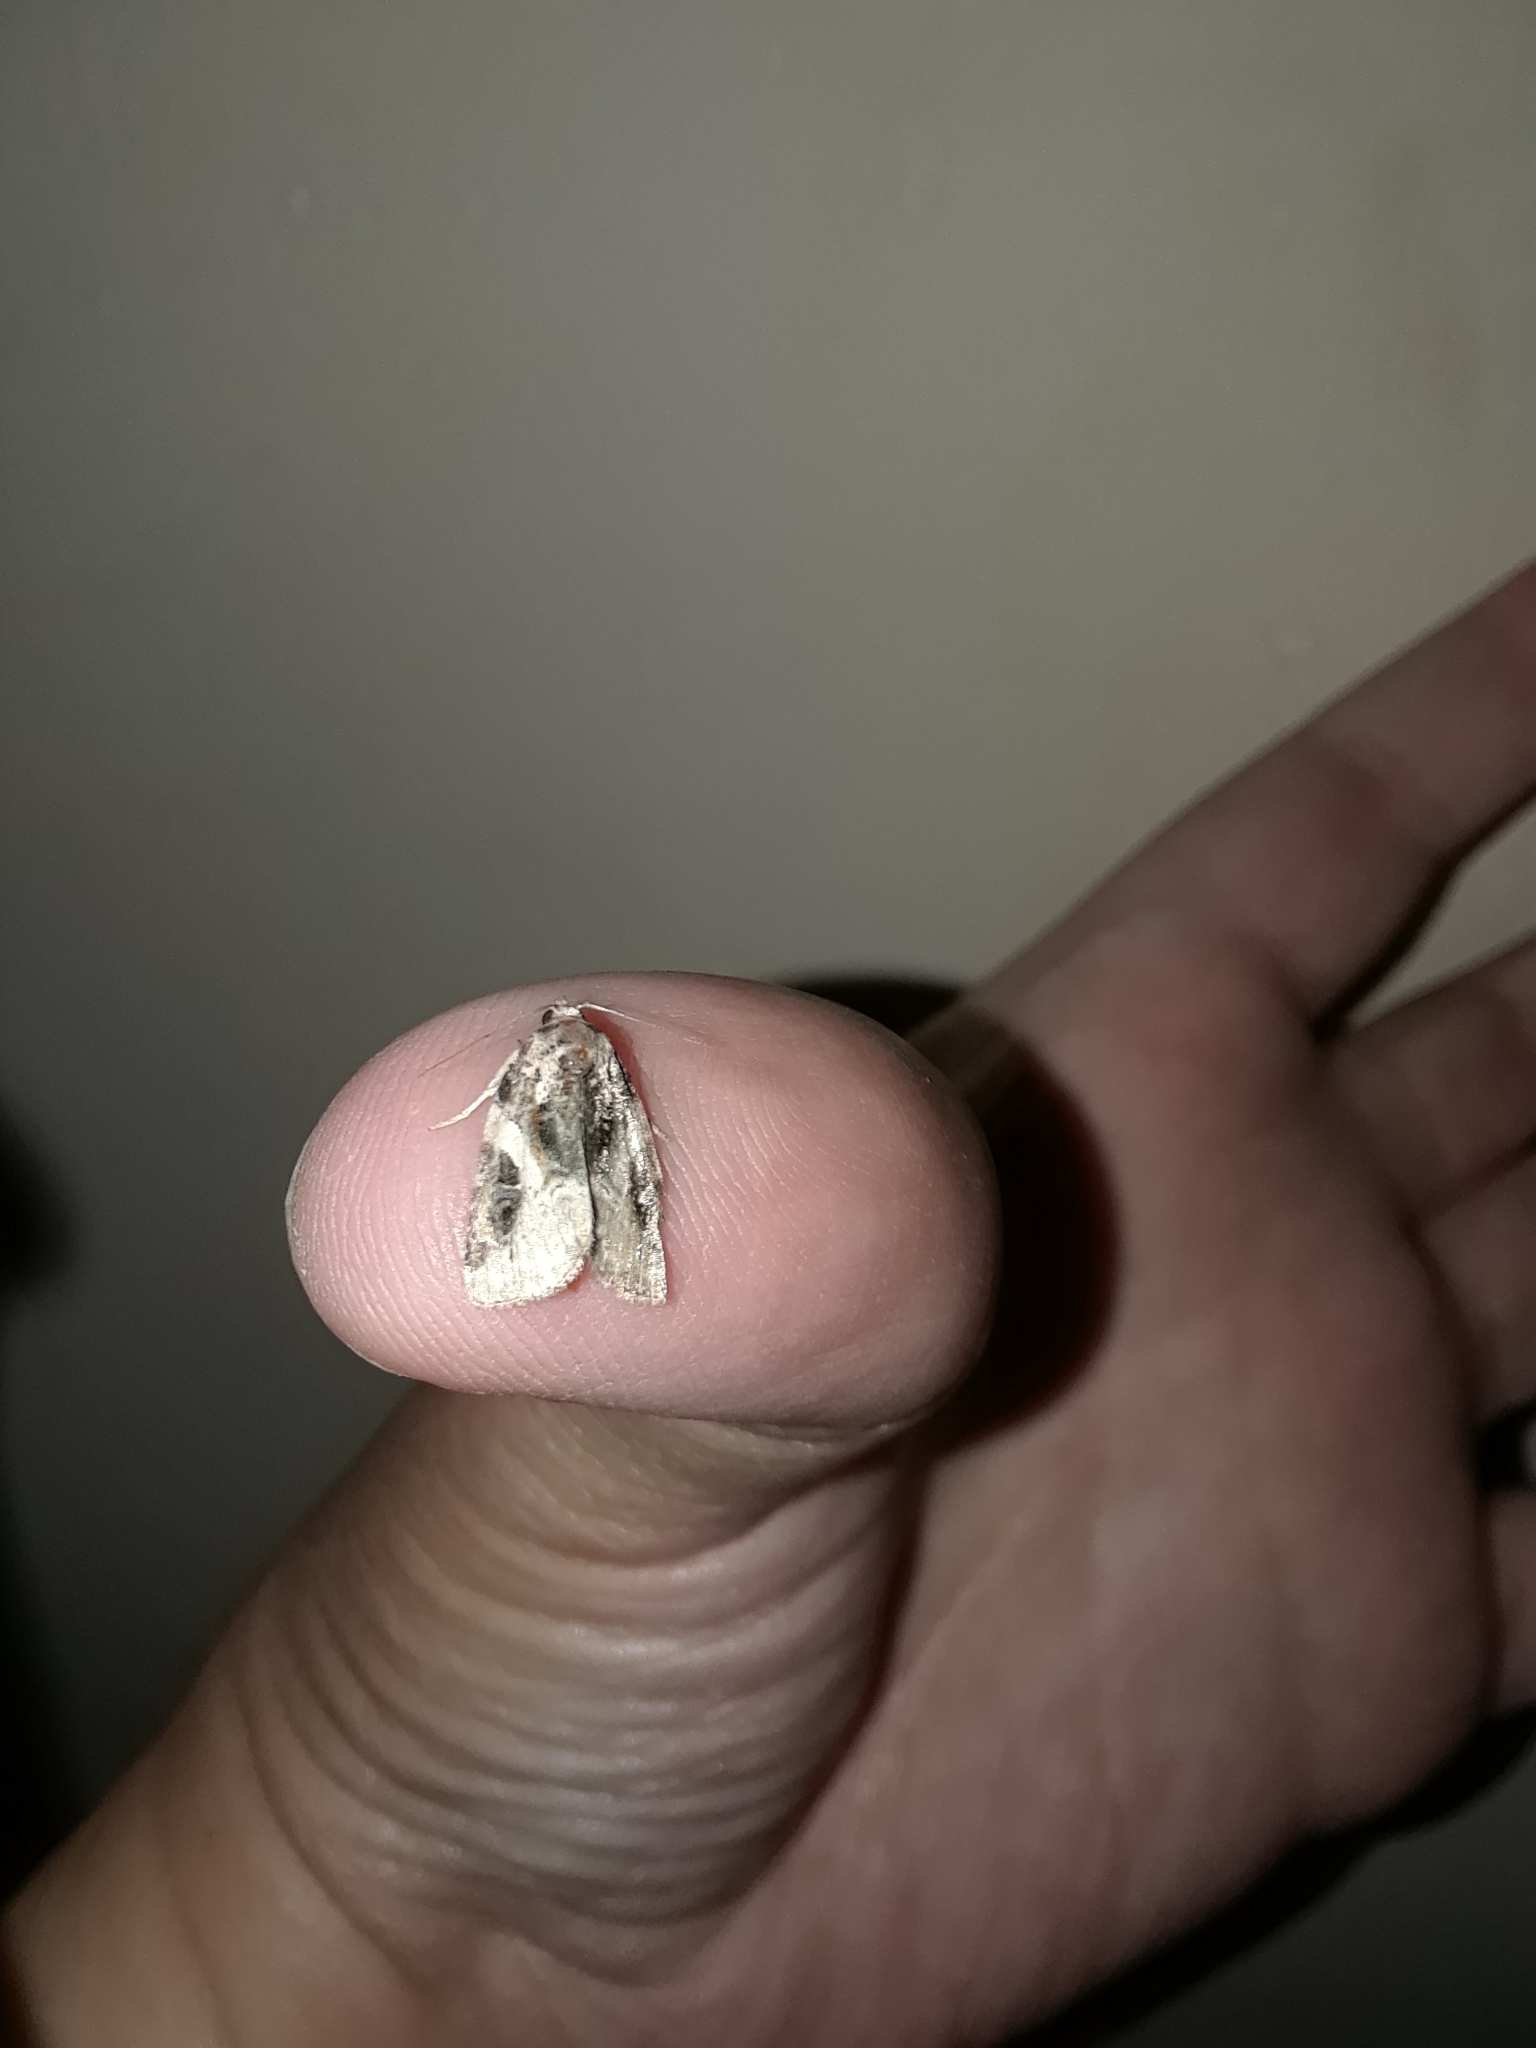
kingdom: Animalia
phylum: Arthropoda
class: Insecta
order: Lepidoptera
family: Noctuidae
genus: Pseudeustrotia
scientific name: Pseudeustrotia carneola
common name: Pink-barred lithacodia moth
